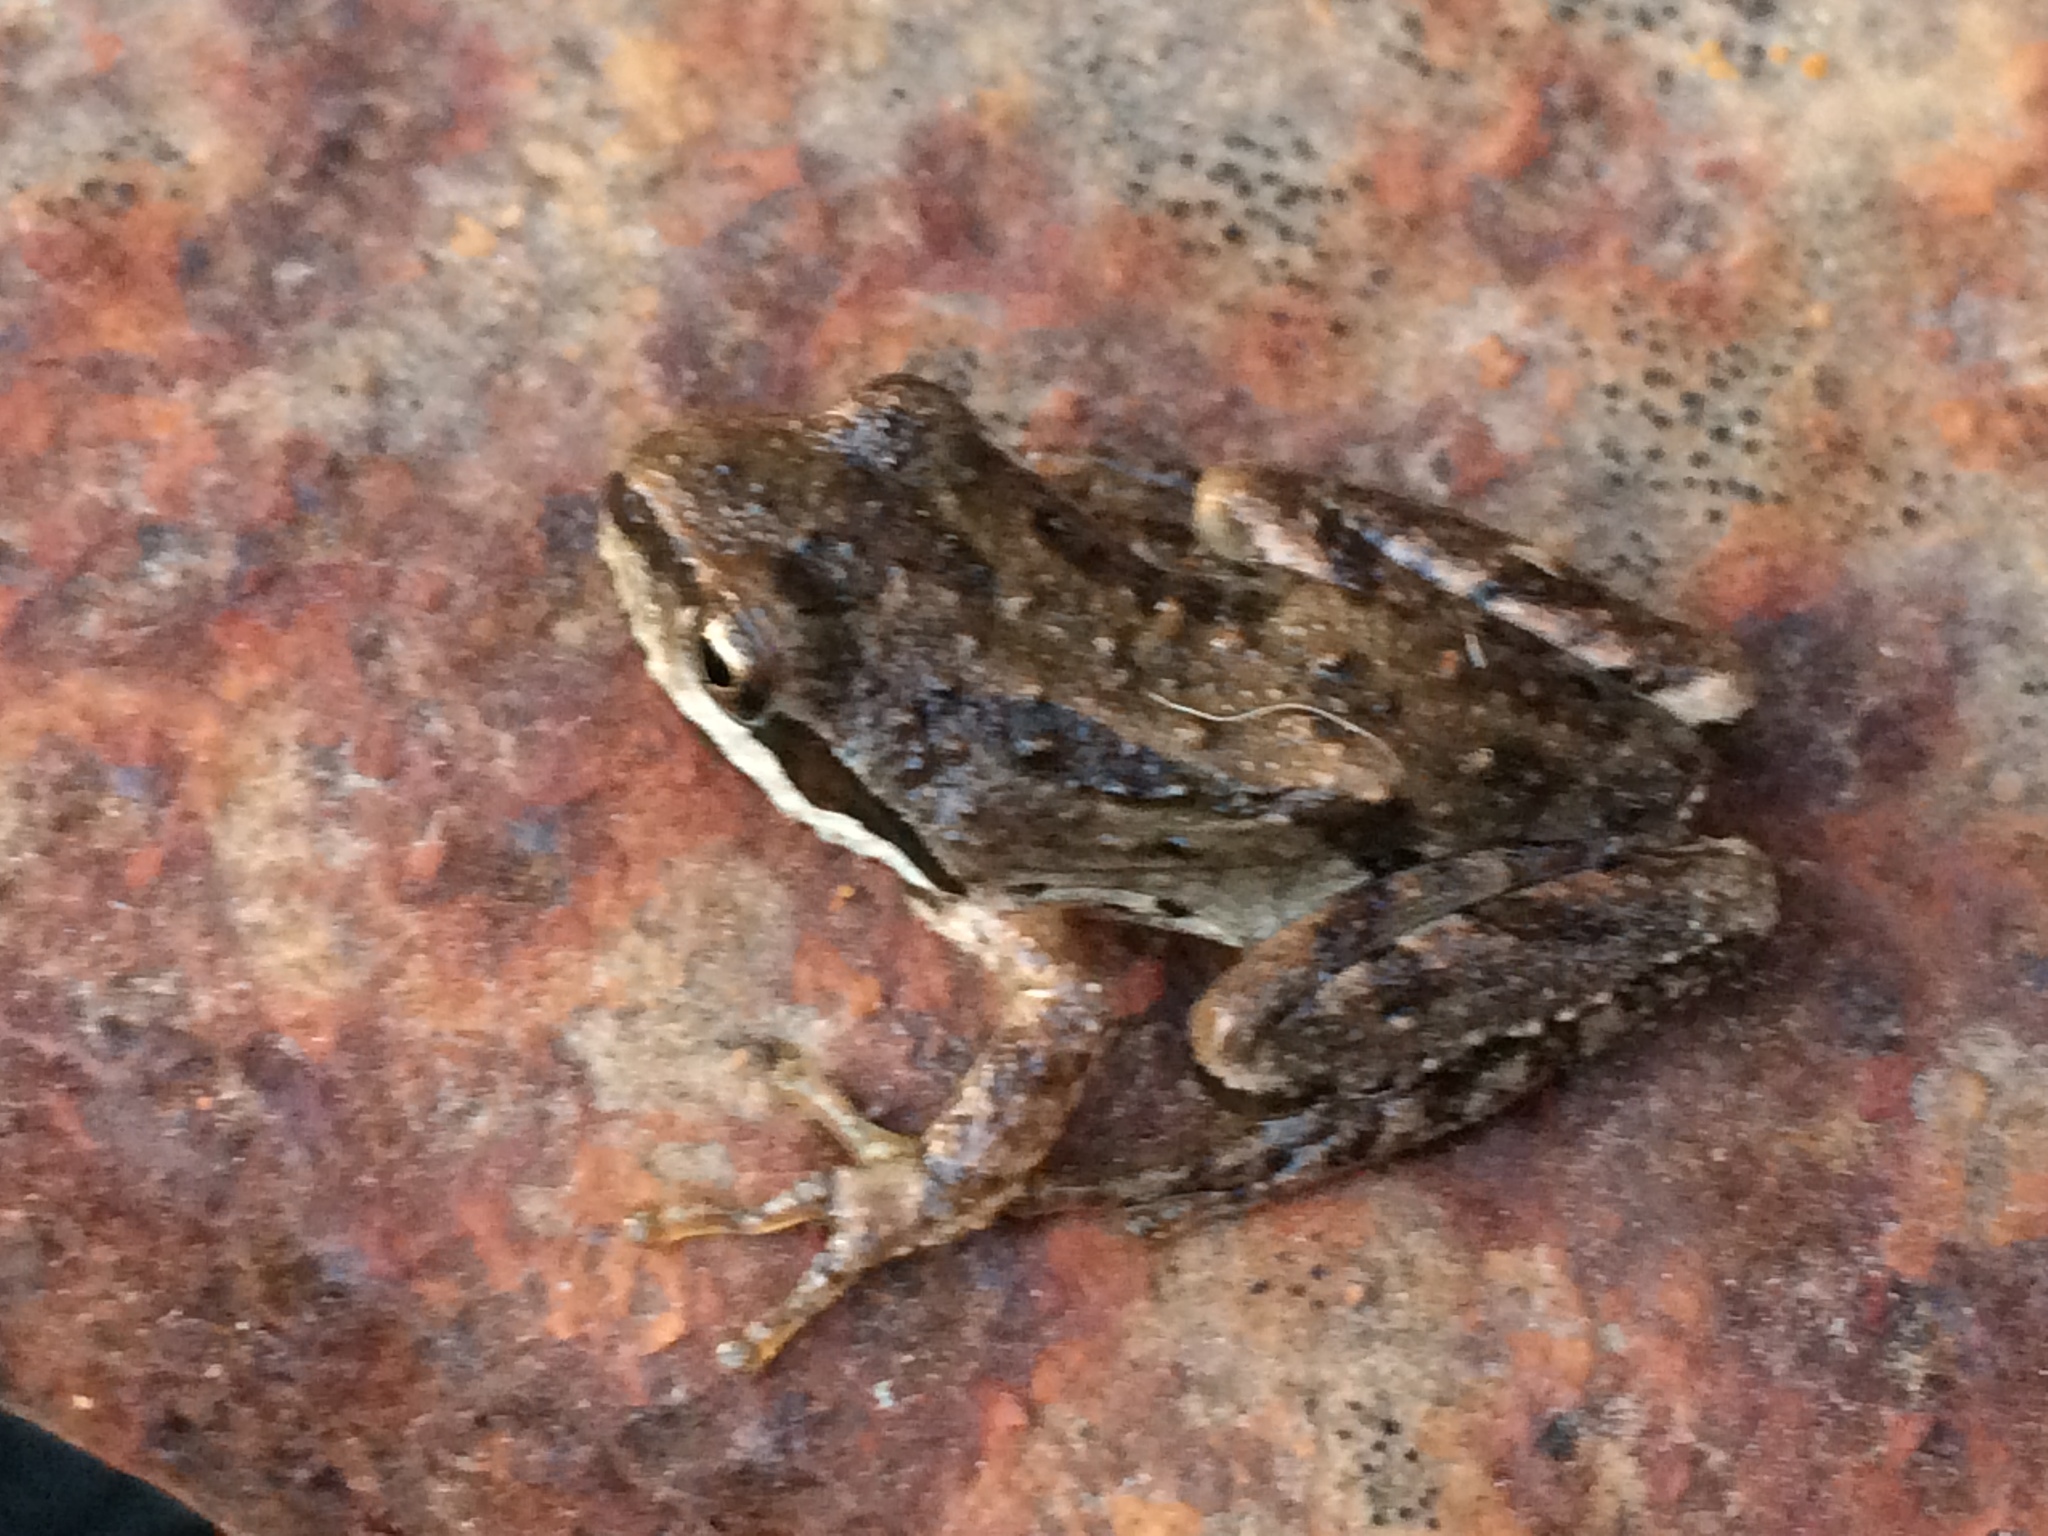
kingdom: Animalia
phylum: Chordata
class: Amphibia
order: Anura
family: Hylidae
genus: Pseudacris
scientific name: Pseudacris regilla
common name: Pacific chorus frog
